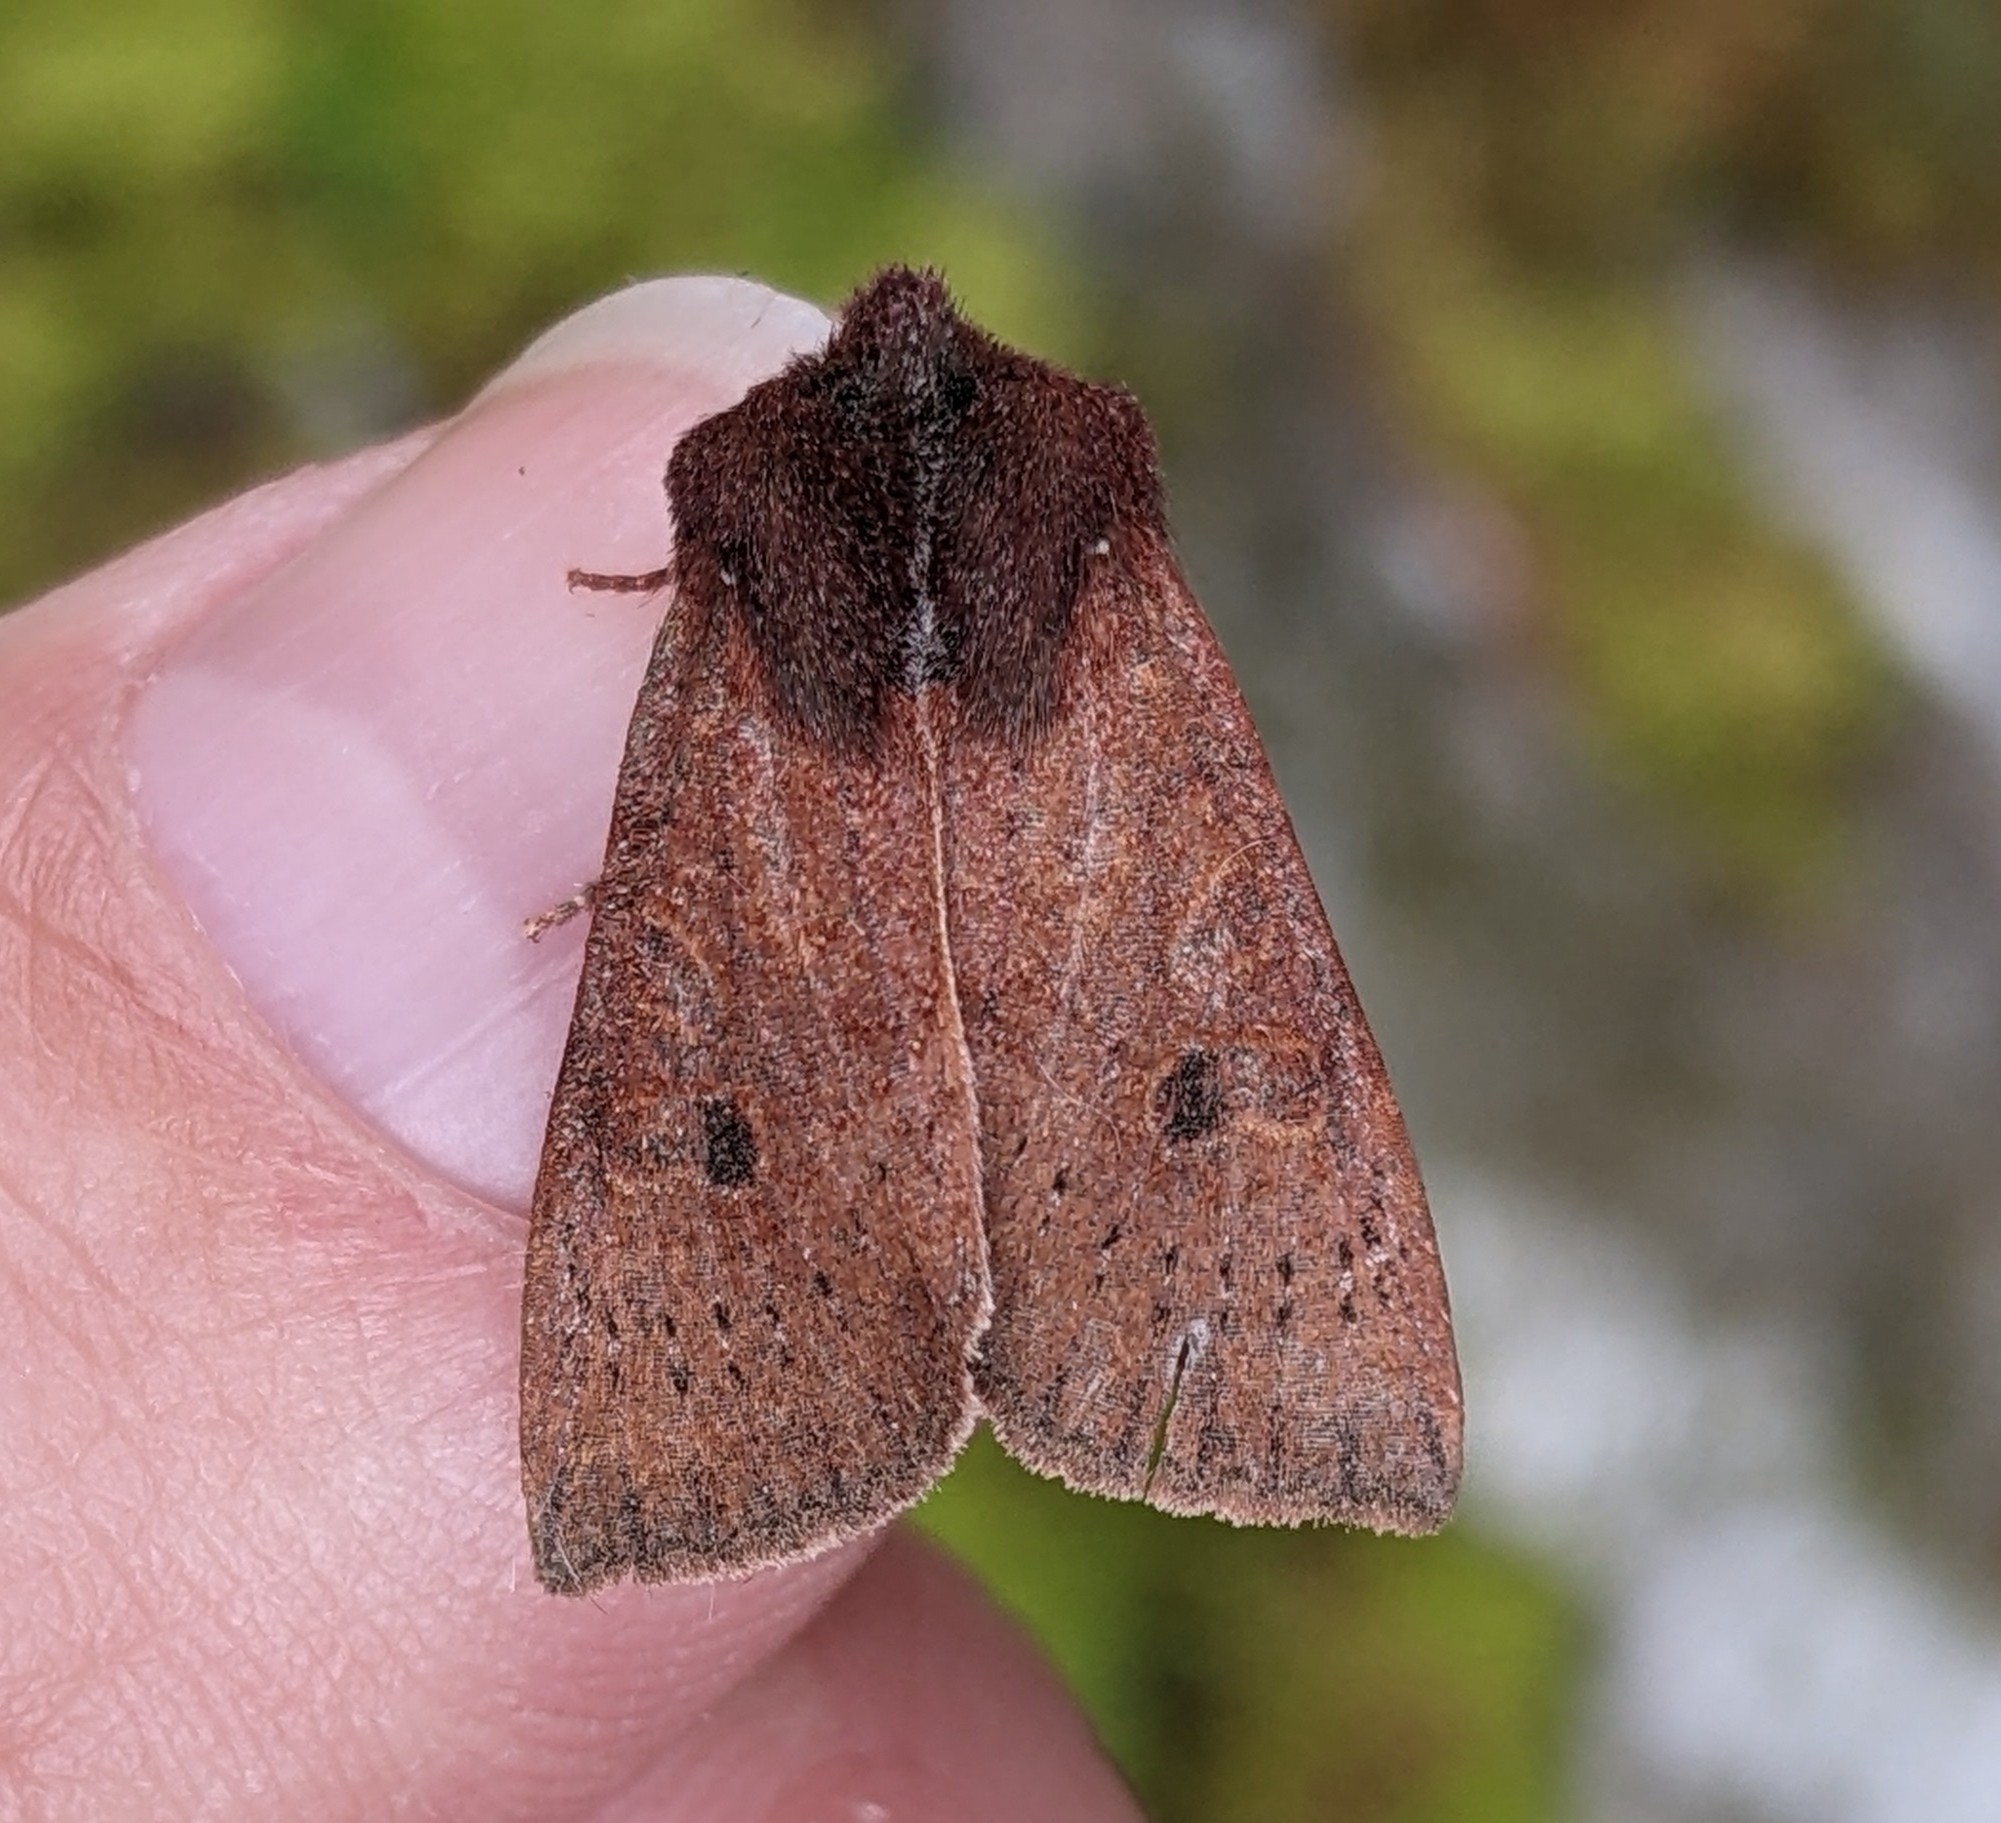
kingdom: Animalia
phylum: Arthropoda
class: Insecta
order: Lepidoptera
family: Noctuidae
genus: Orthosia
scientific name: Orthosia transparens
